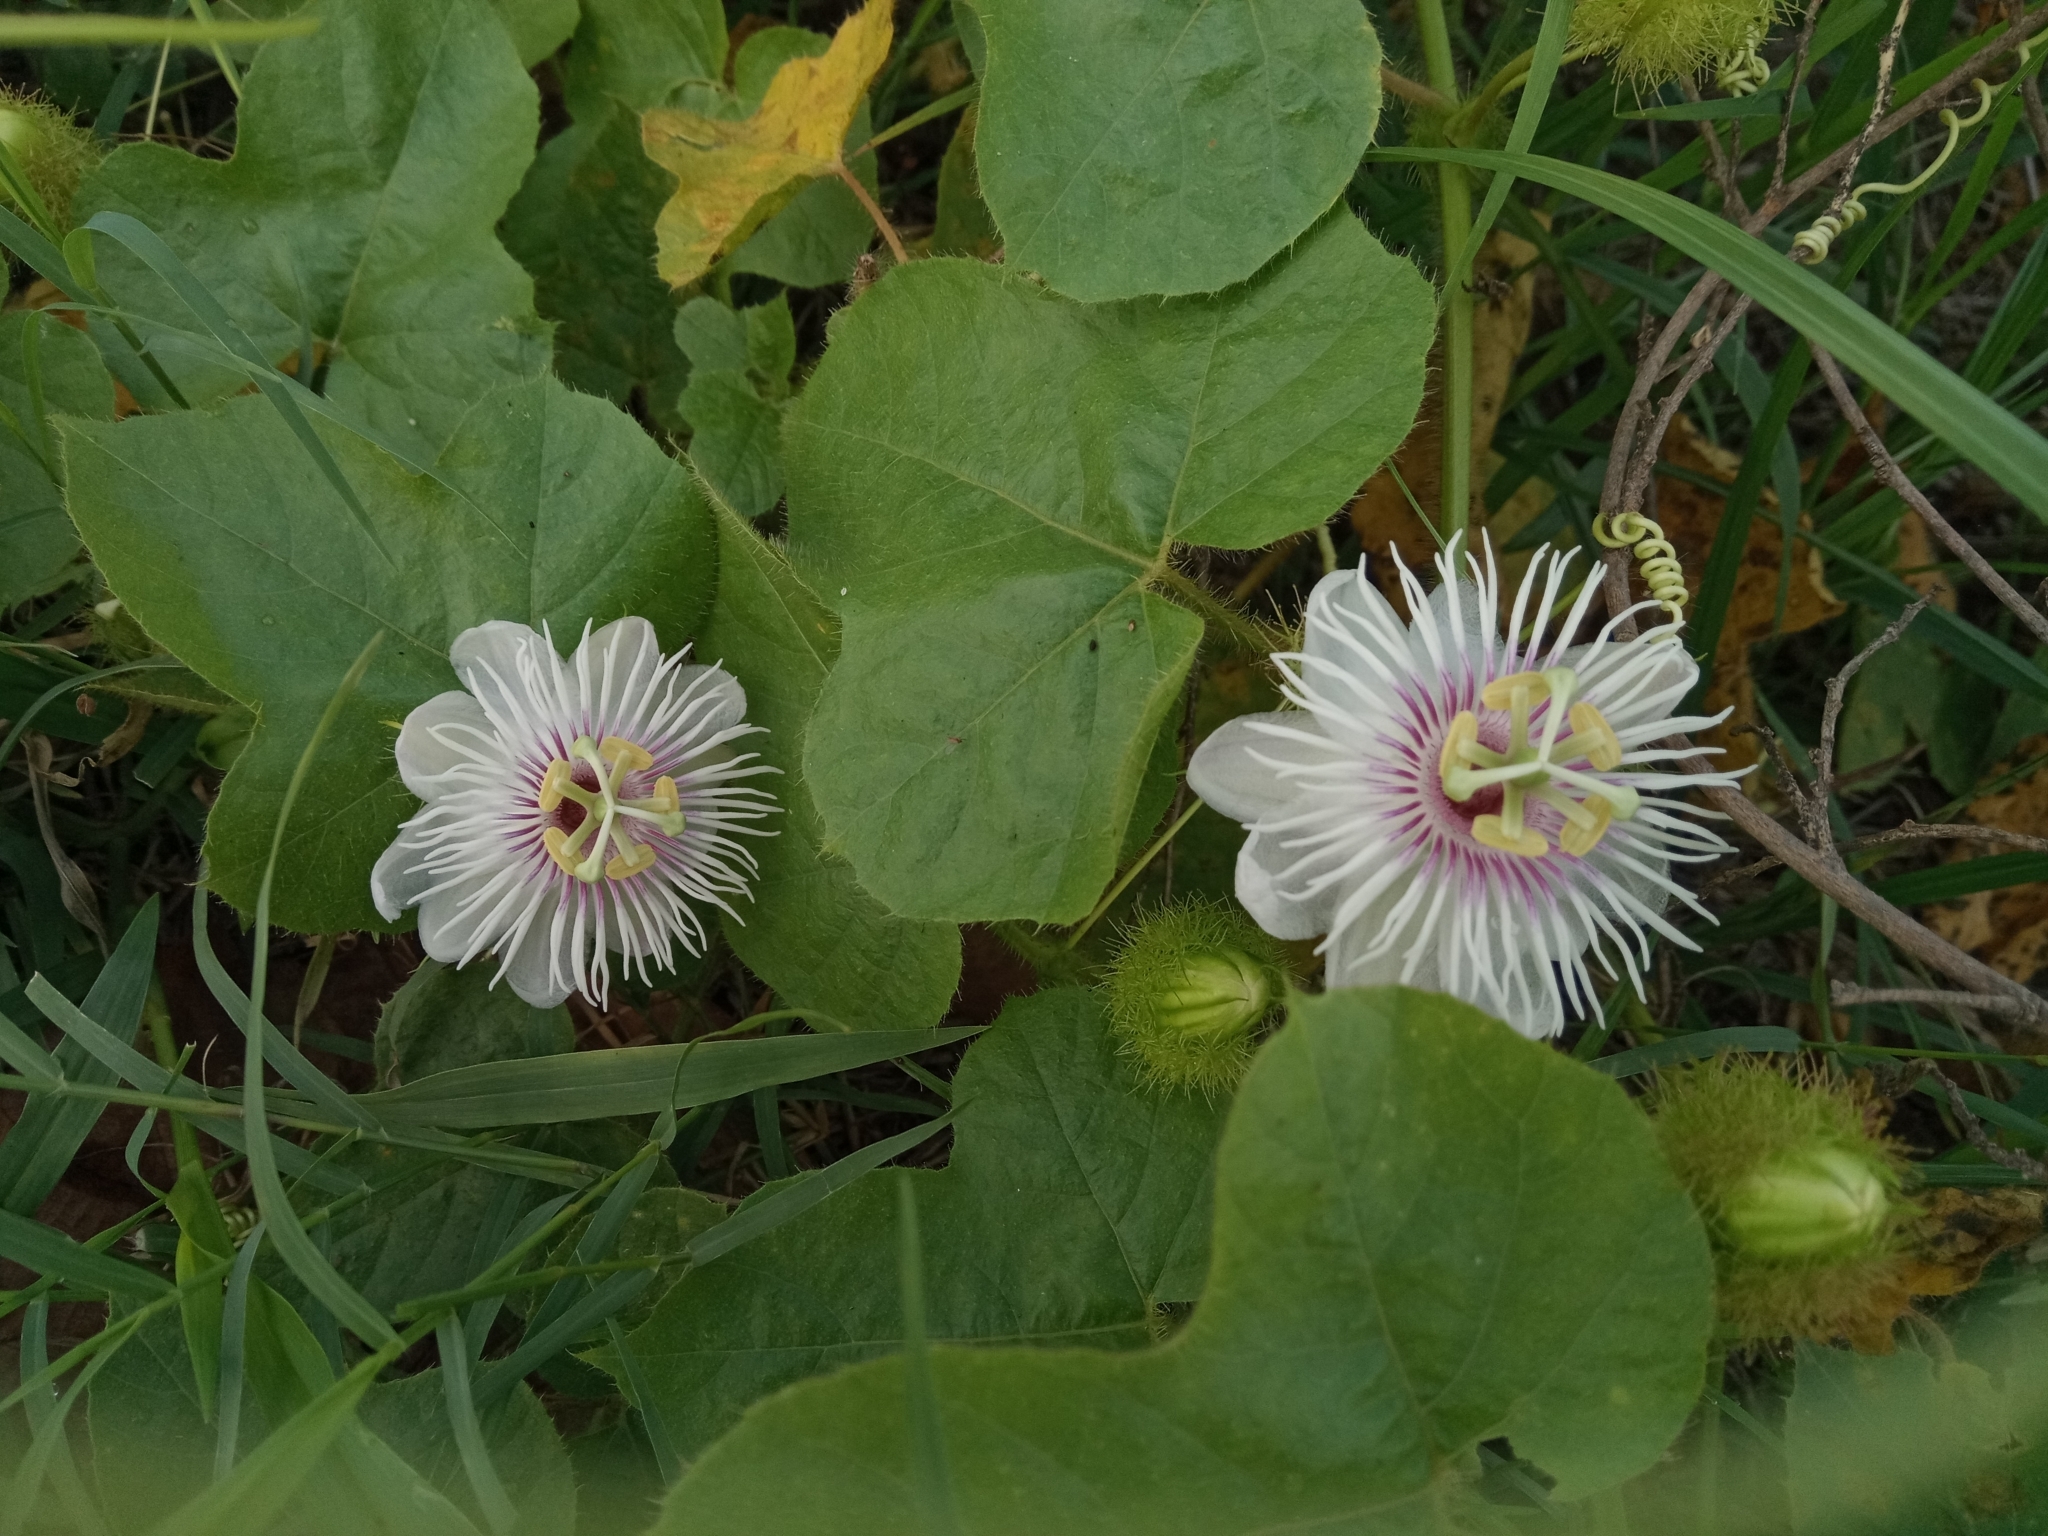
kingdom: Plantae
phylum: Tracheophyta
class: Magnoliopsida
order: Malpighiales
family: Passifloraceae
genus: Passiflora
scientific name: Passiflora foetida
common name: Fetid passionflower
